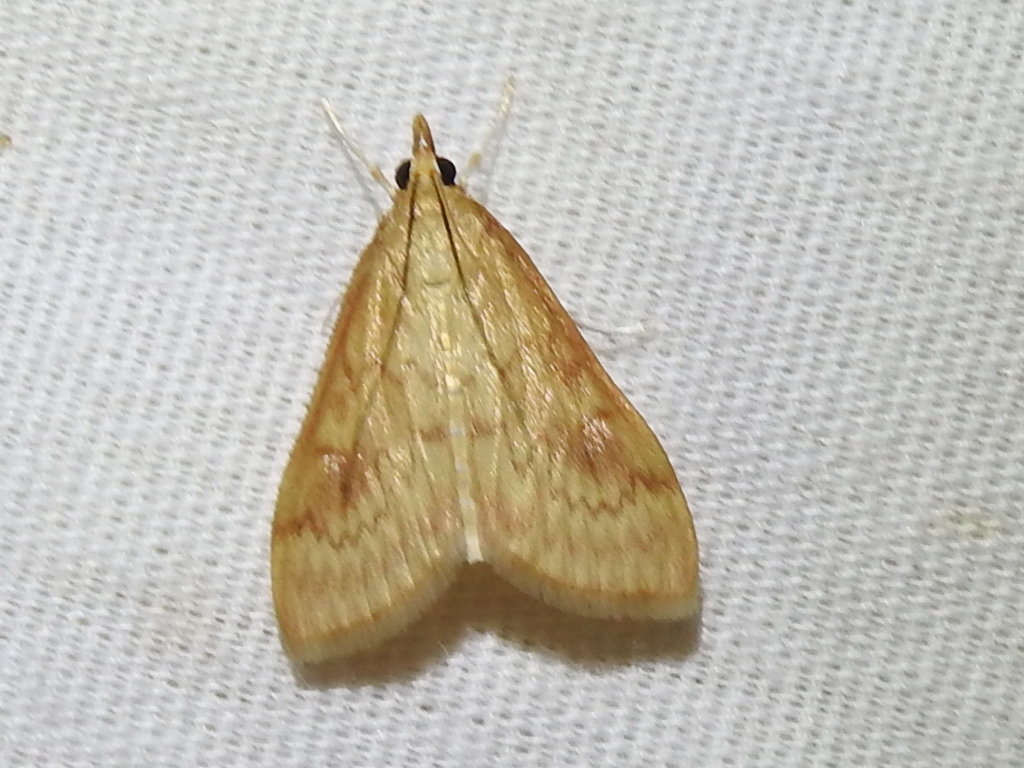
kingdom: Animalia
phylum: Arthropoda
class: Insecta
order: Lepidoptera
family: Crambidae
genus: Ostrinia
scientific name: Ostrinia penitalis
